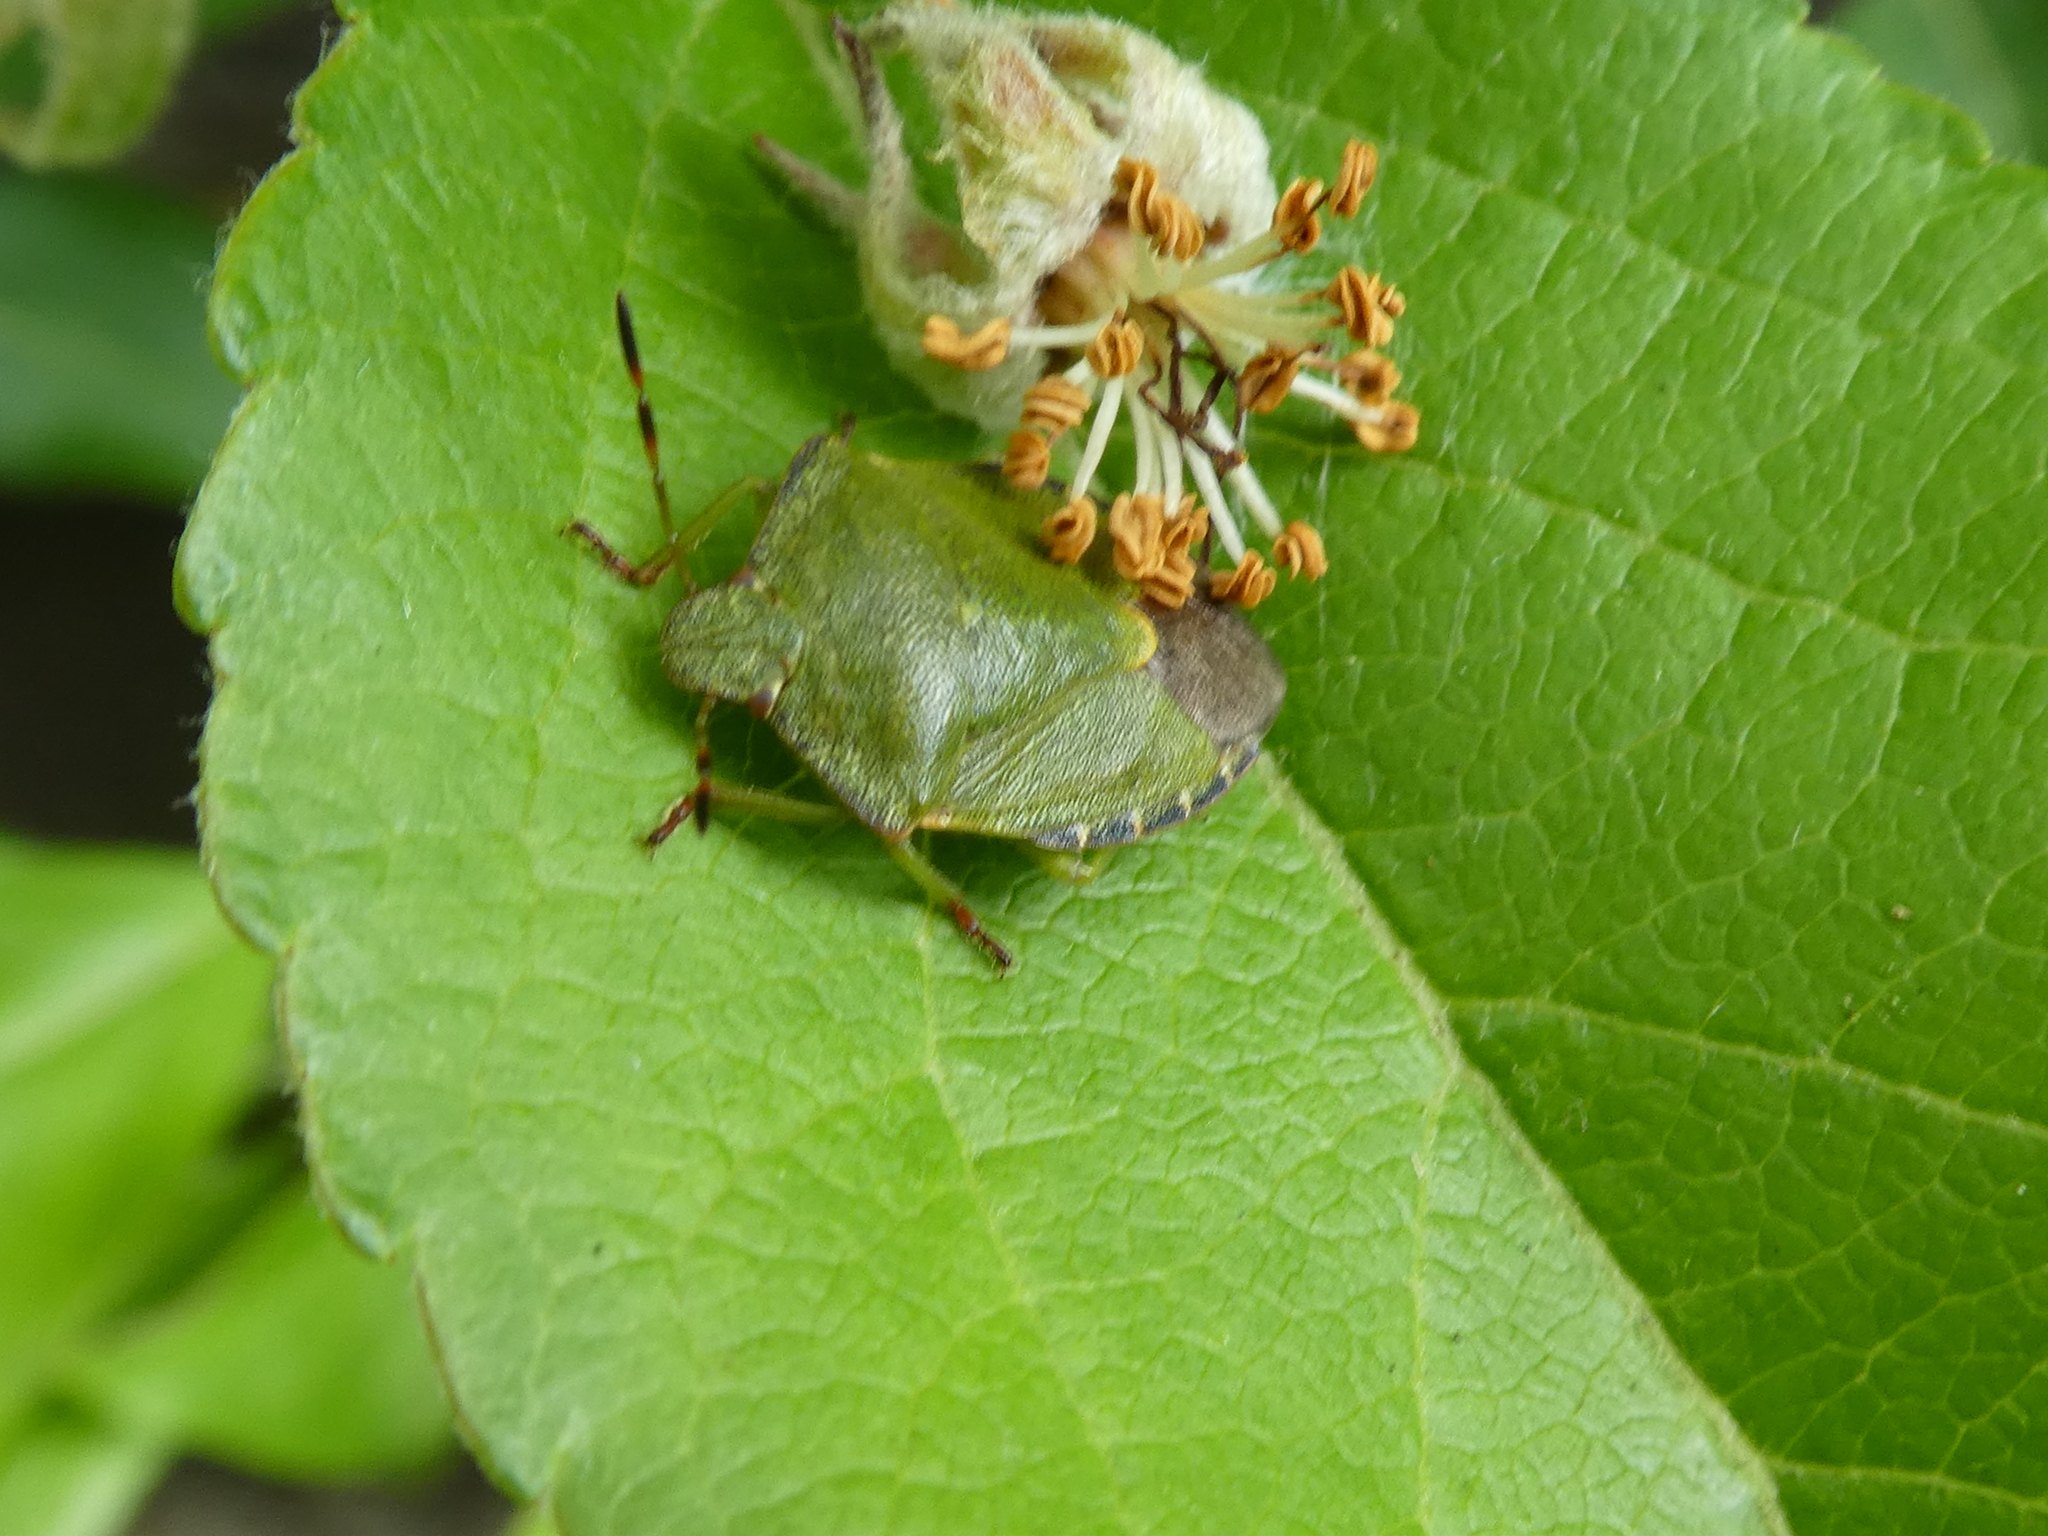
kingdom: Animalia
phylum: Arthropoda
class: Insecta
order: Hemiptera
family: Pentatomidae
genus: Palomena
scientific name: Palomena prasina
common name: Green shieldbug
